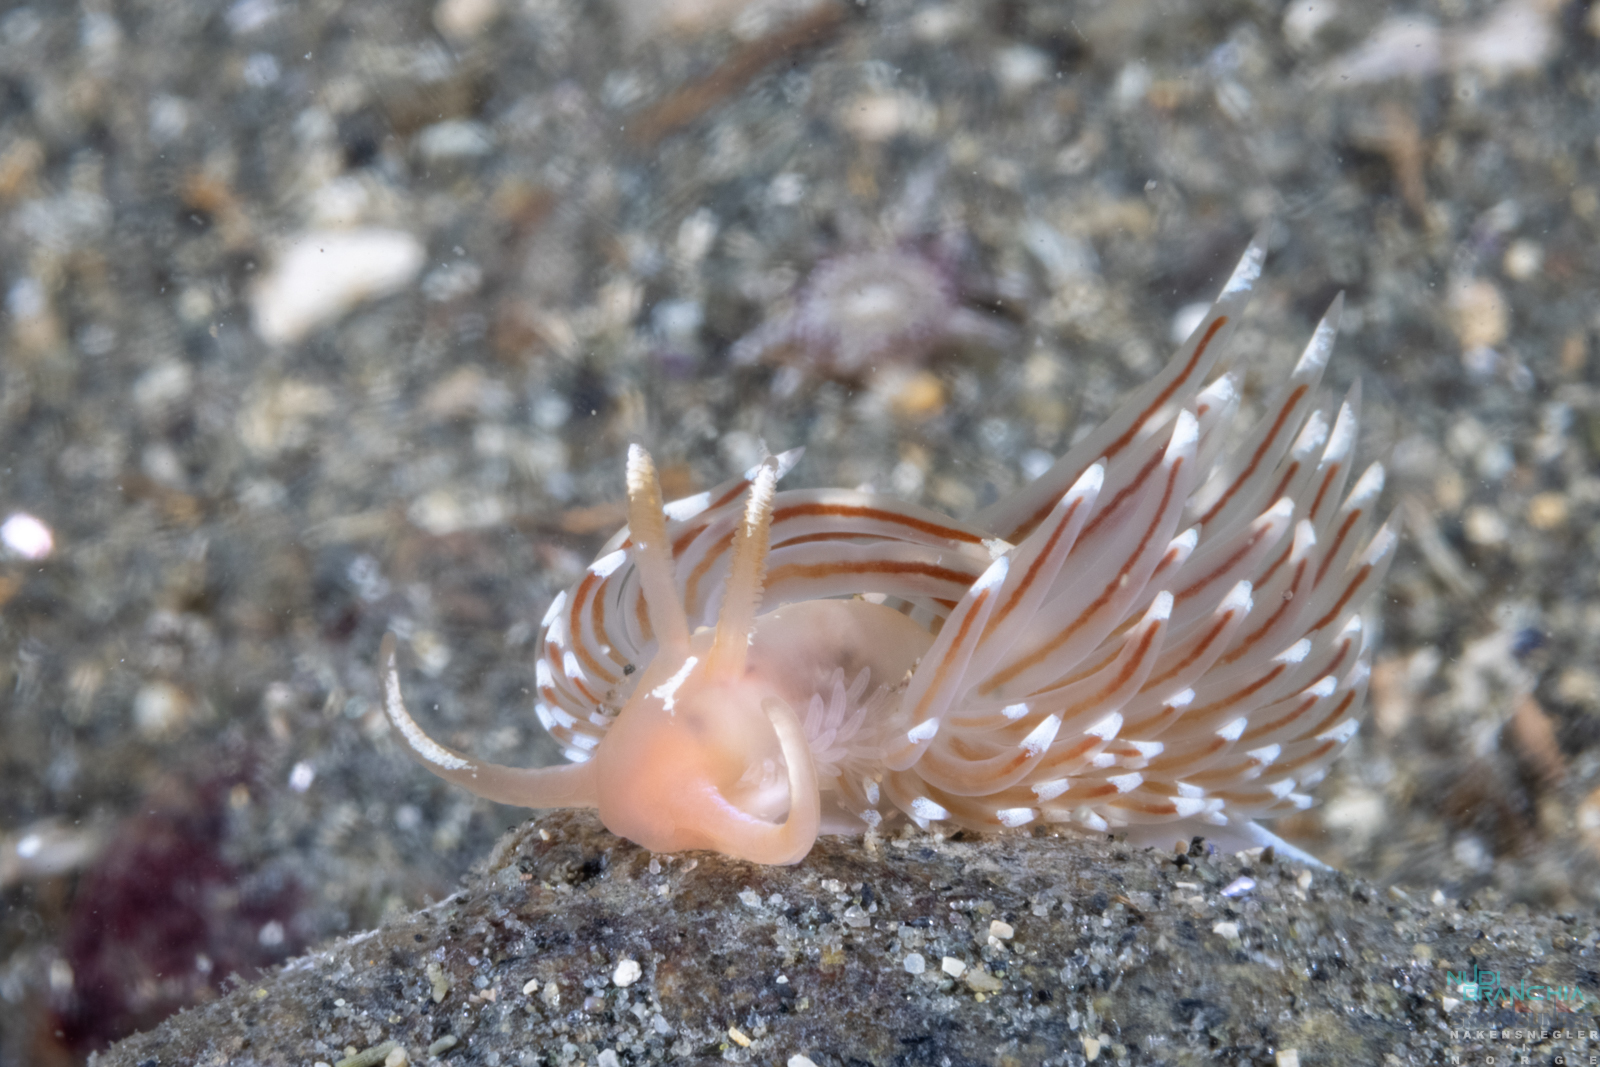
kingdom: Animalia
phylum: Mollusca
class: Gastropoda
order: Nudibranchia
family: Facelinidae
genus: Facelina
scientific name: Facelina bostoniensis
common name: Boston facelina
